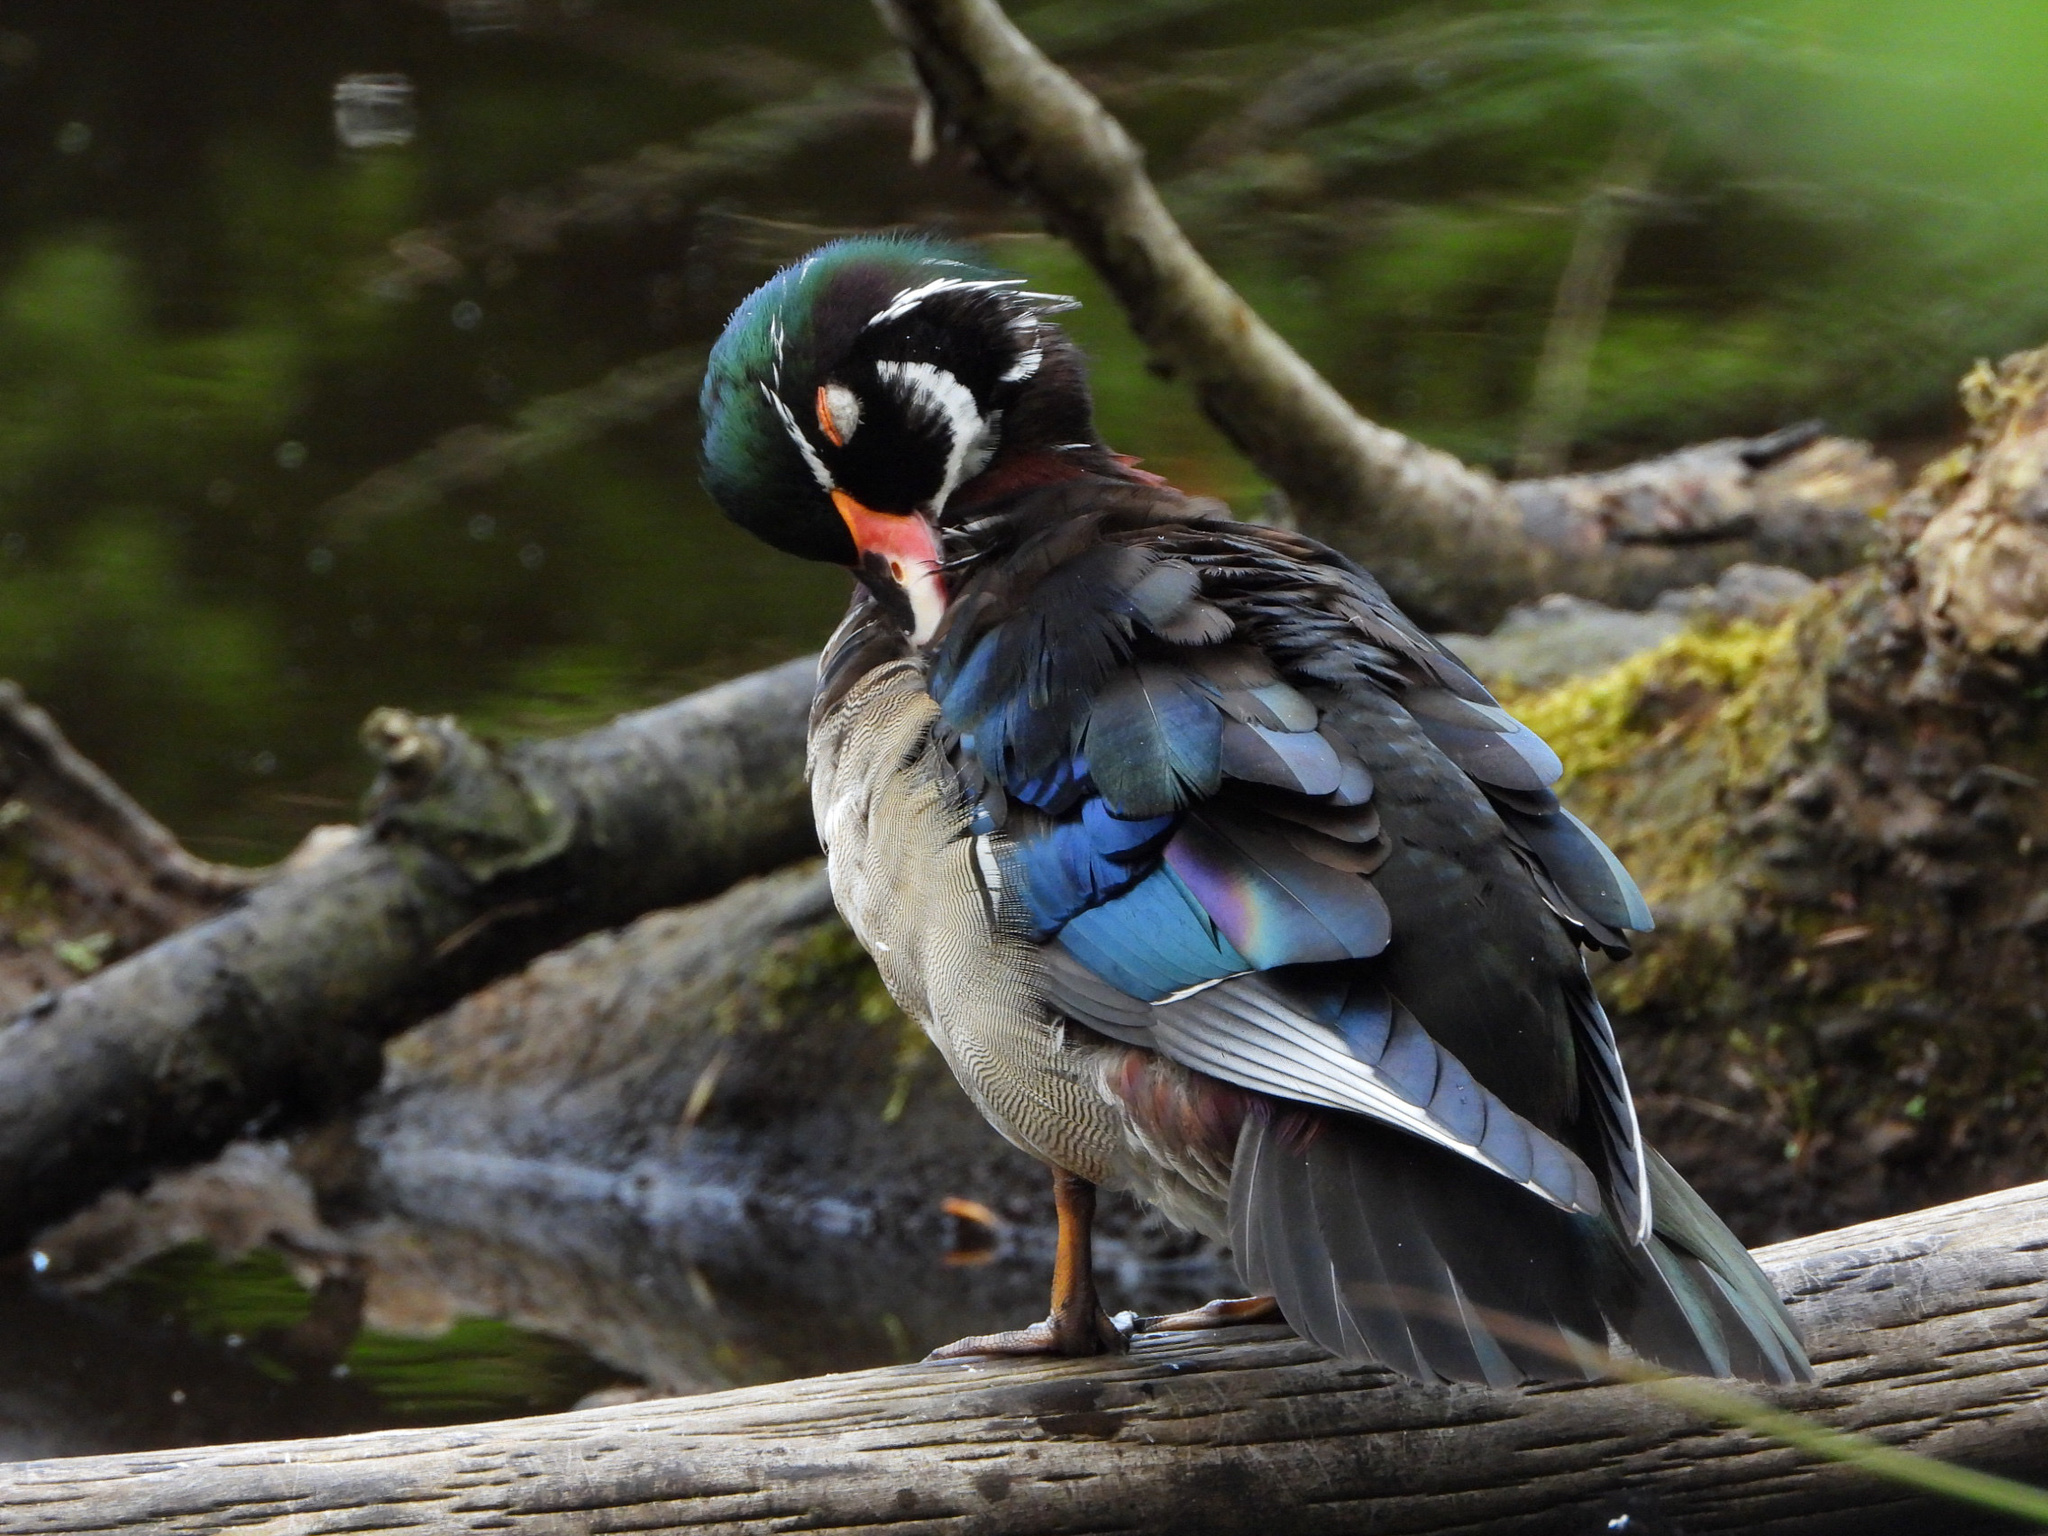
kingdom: Animalia
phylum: Chordata
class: Aves
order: Anseriformes
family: Anatidae
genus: Aix
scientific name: Aix sponsa
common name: Wood duck
